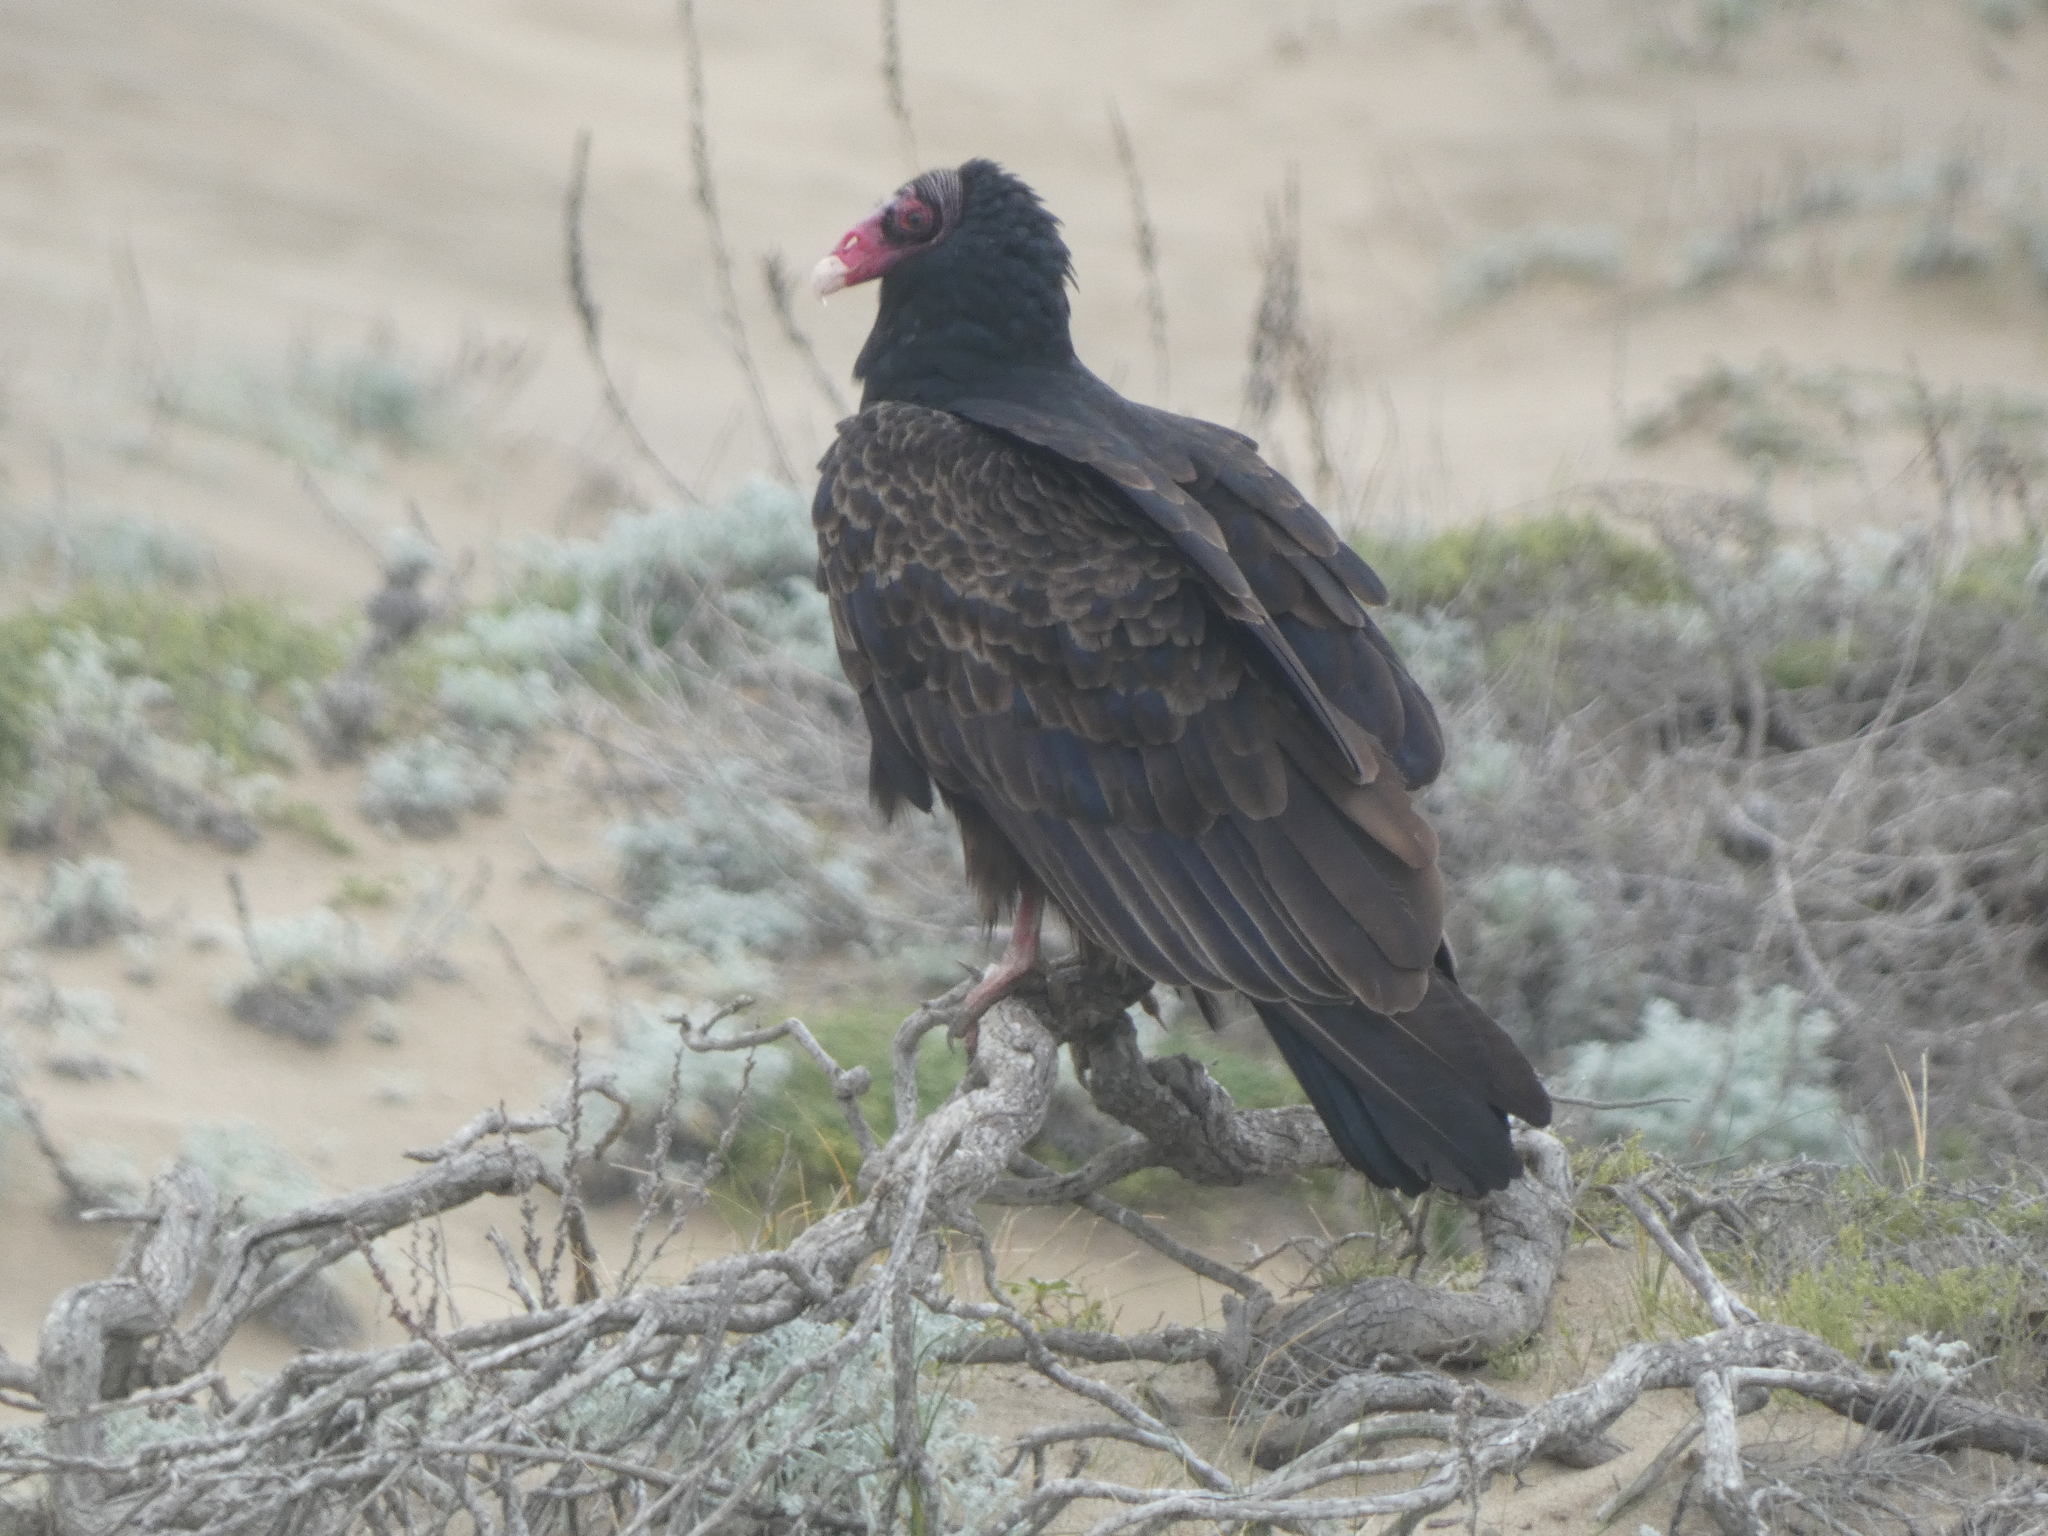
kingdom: Animalia
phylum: Chordata
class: Aves
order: Accipitriformes
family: Cathartidae
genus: Cathartes
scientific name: Cathartes aura
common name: Turkey vulture
